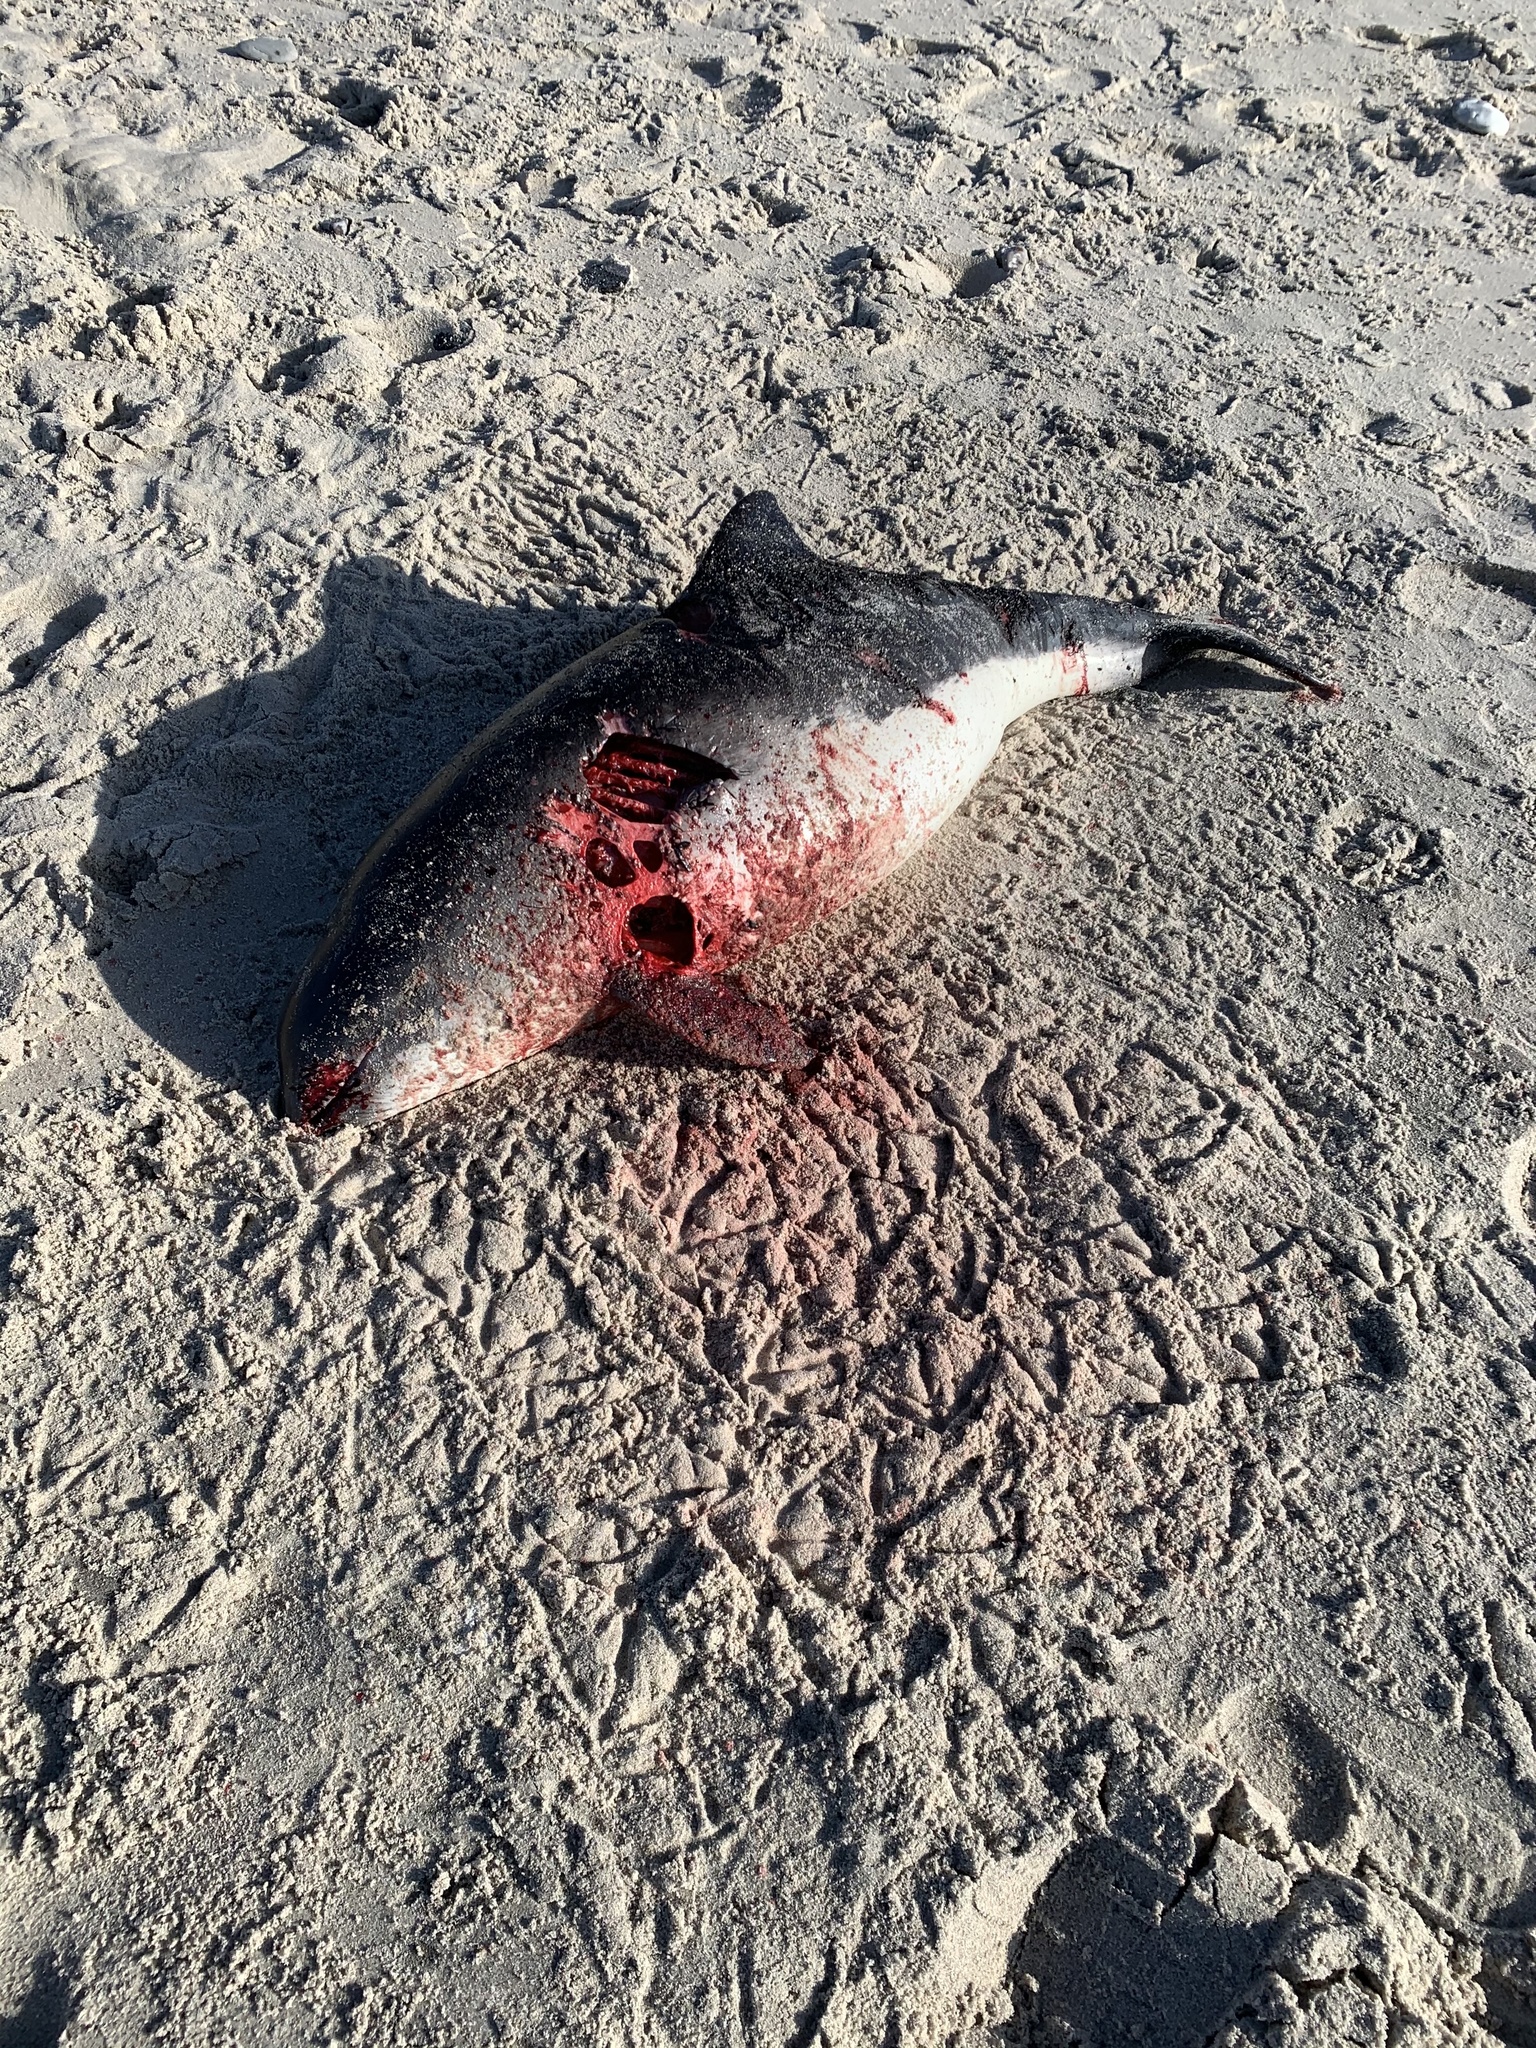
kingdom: Animalia
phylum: Chordata
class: Mammalia
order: Cetacea
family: Phocoenidae
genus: Phocoena
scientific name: Phocoena phocoena
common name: Harbor porpoise
